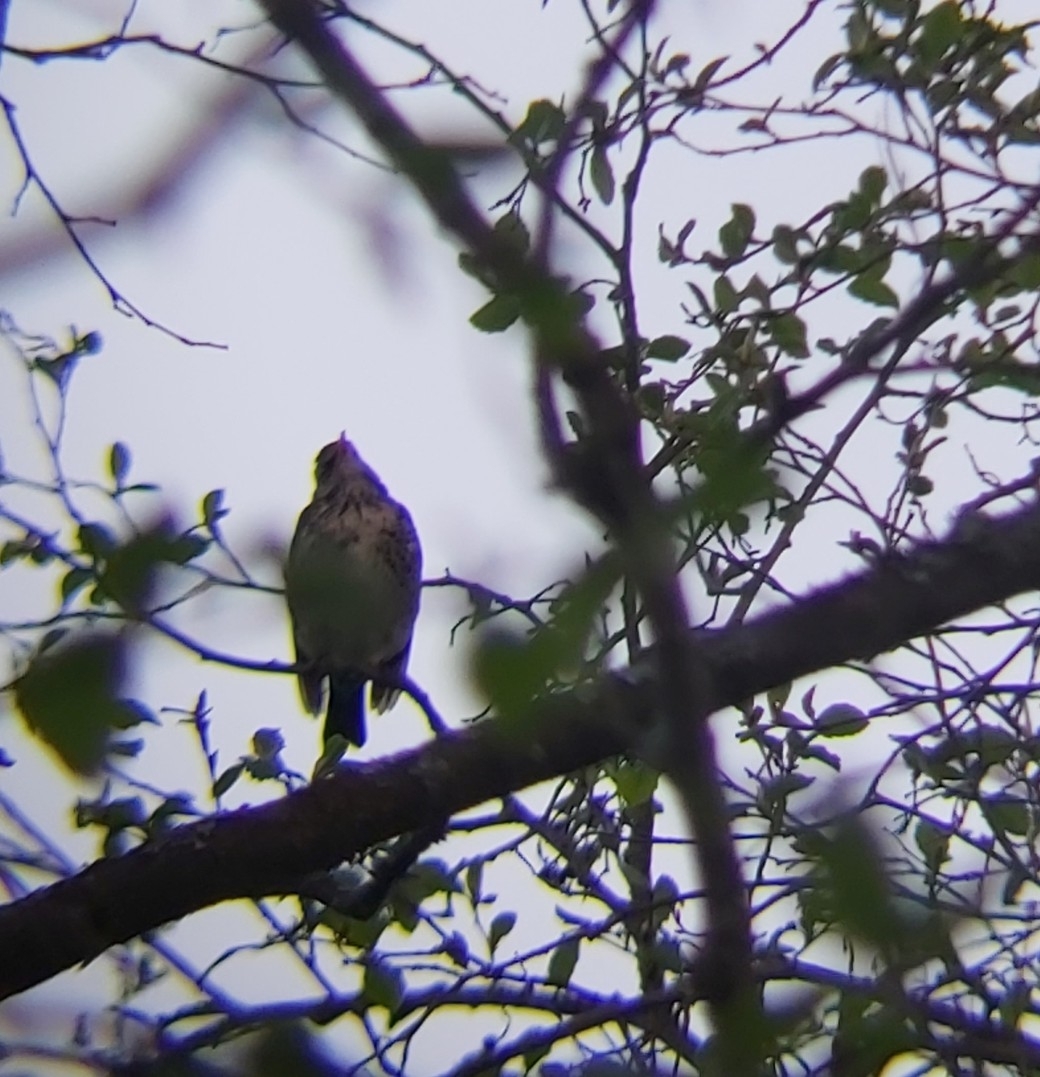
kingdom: Animalia
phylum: Chordata
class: Aves
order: Passeriformes
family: Turdidae
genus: Turdus
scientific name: Turdus pilaris
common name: Fieldfare
